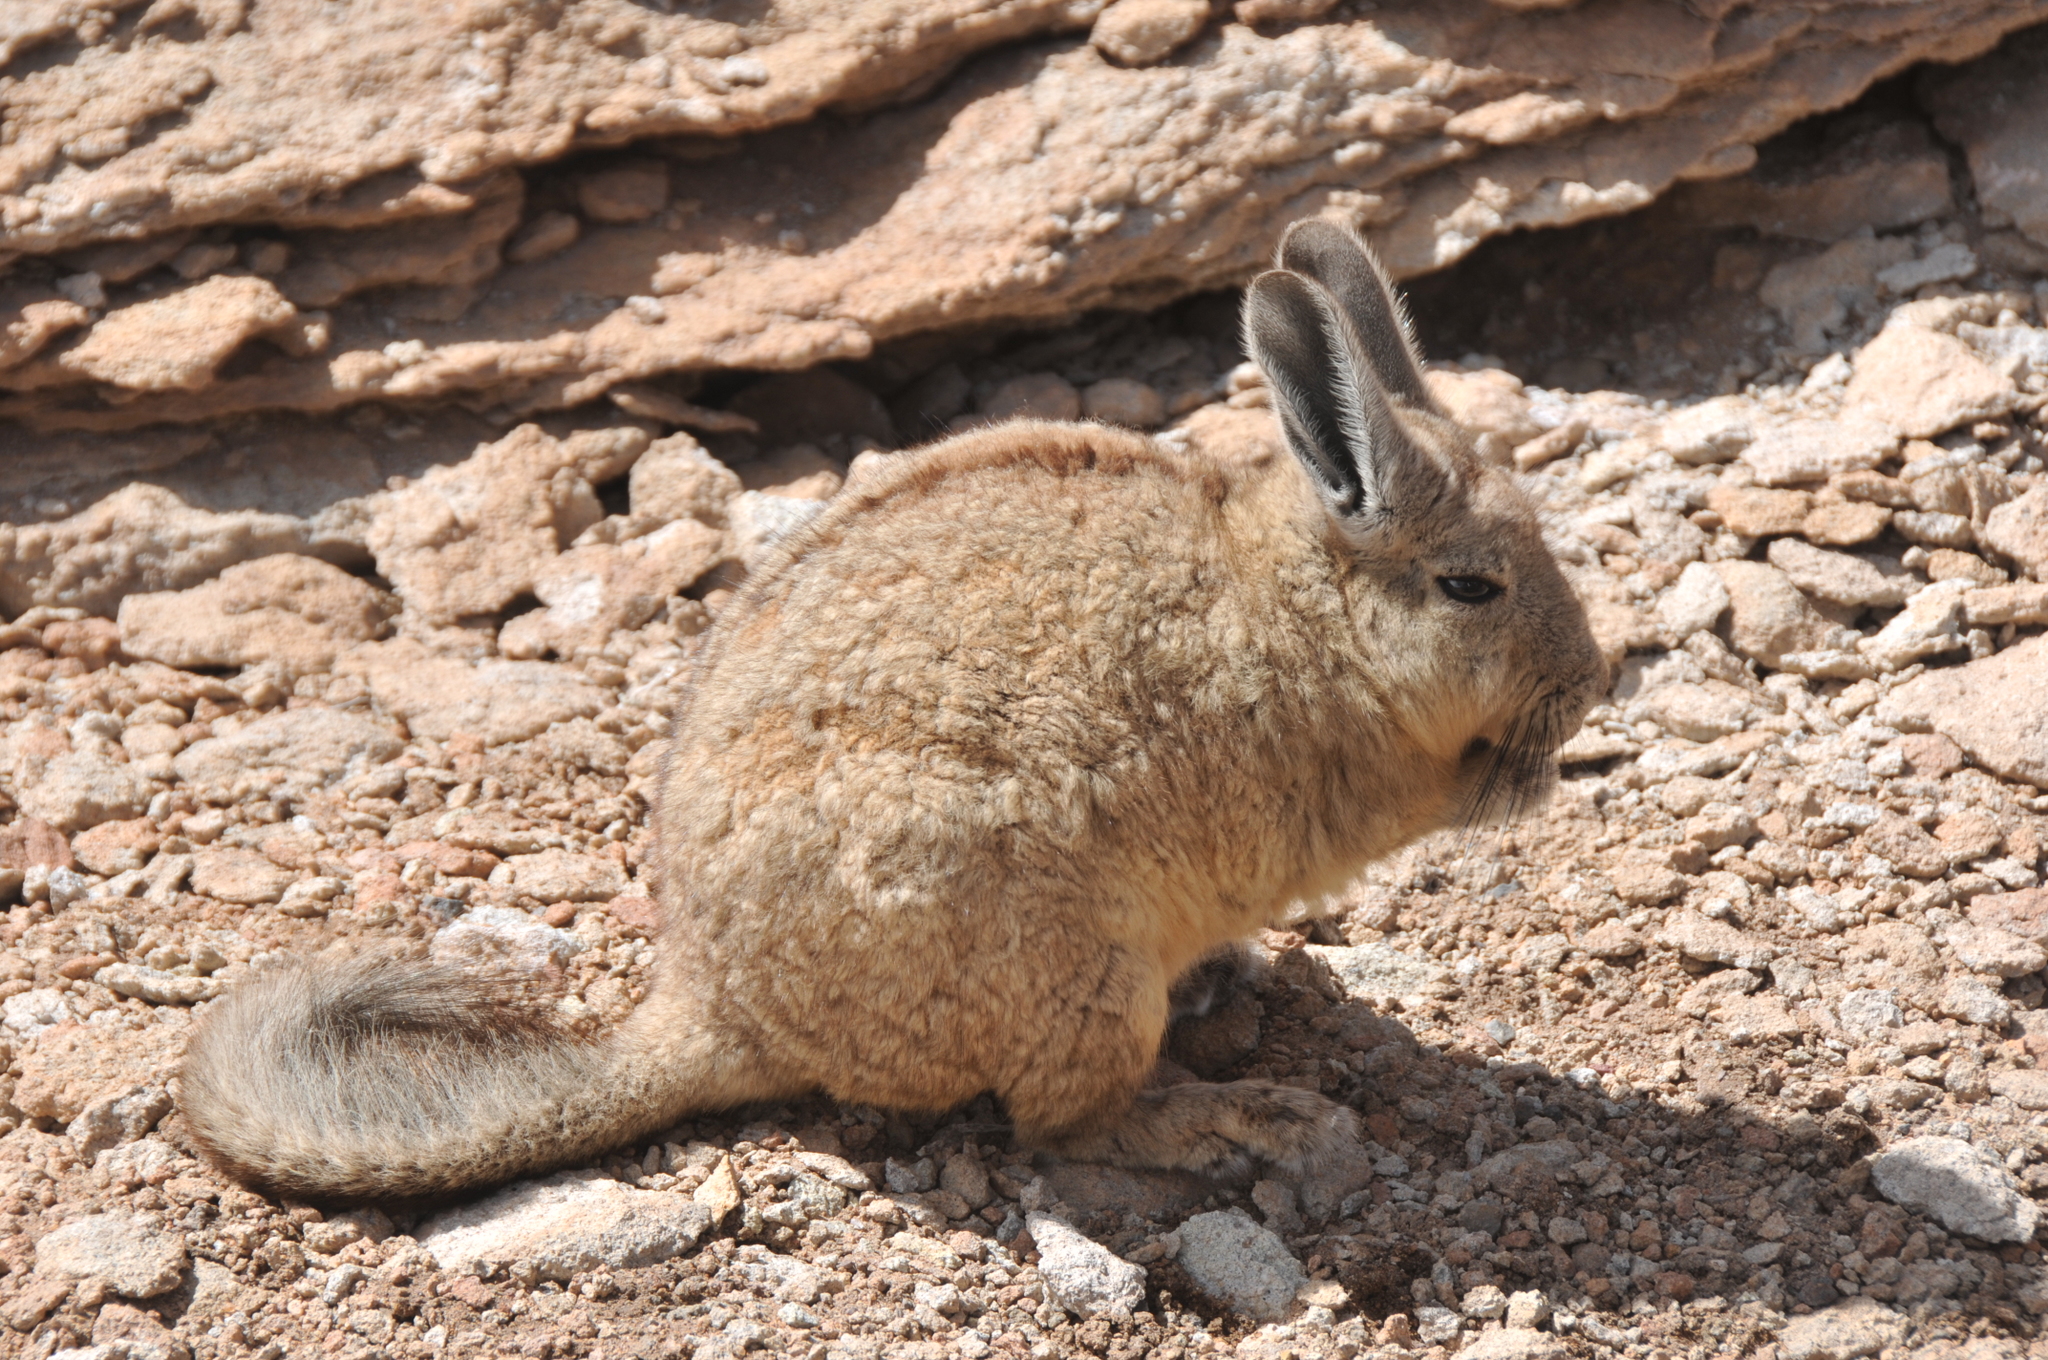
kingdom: Animalia
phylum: Chordata
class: Mammalia
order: Rodentia
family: Chinchillidae
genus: Lagidium
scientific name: Lagidium viscacia
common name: Southern viscacha
